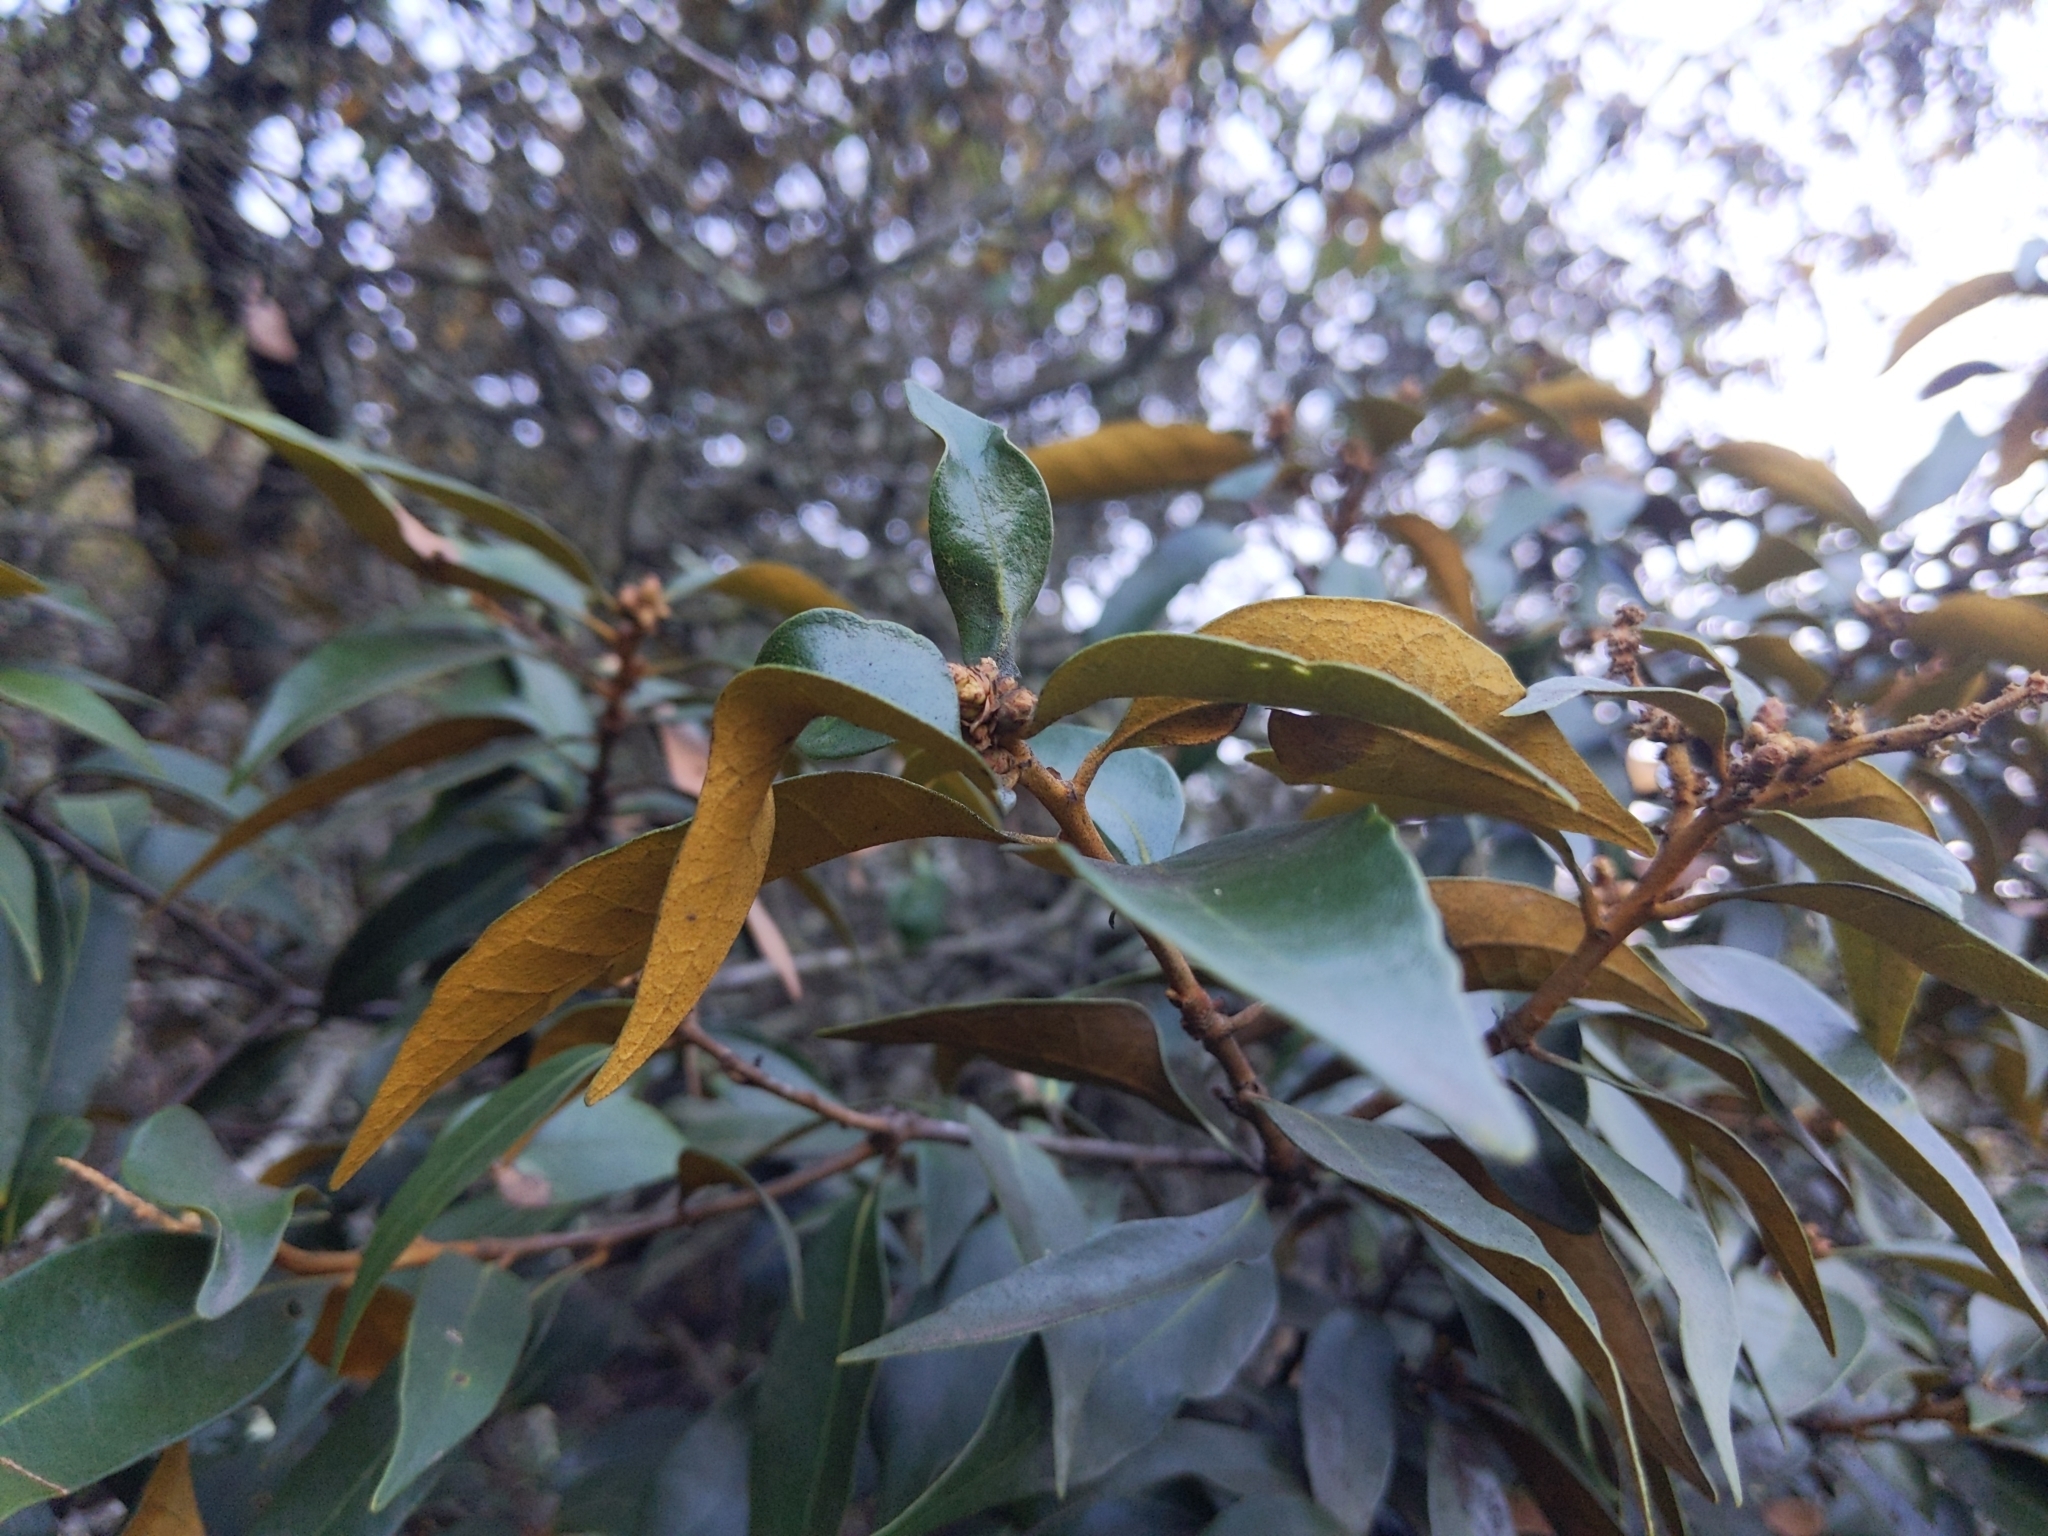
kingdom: Plantae
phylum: Tracheophyta
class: Magnoliopsida
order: Fagales
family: Fagaceae
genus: Chrysolepis
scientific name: Chrysolepis chrysophylla
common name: Giant chinquapin
